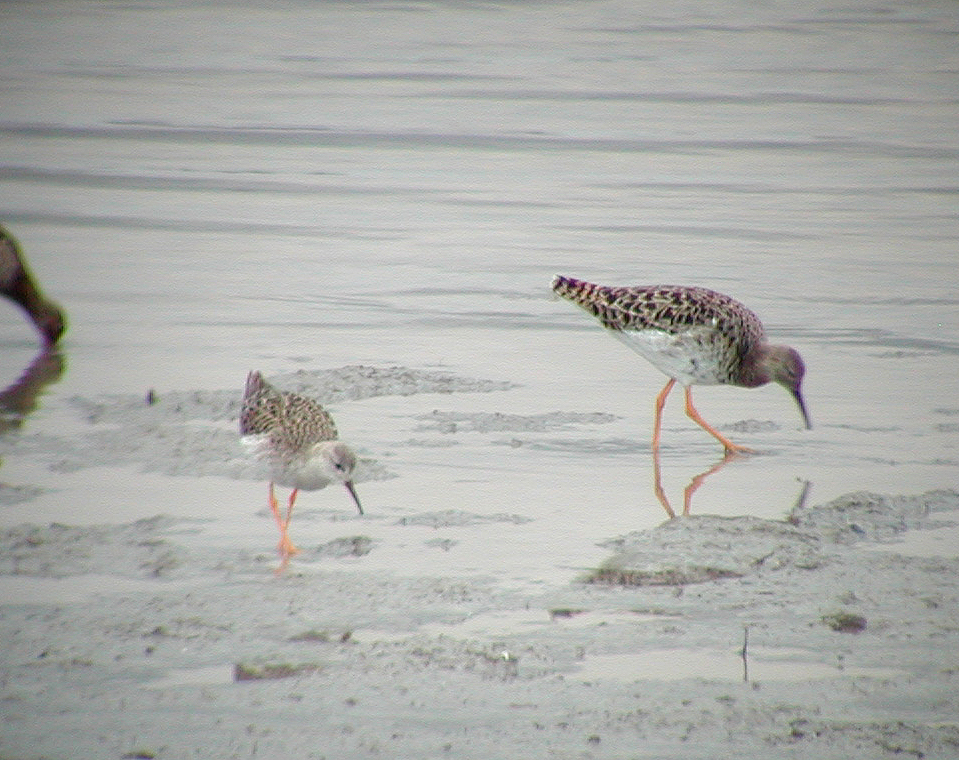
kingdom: Animalia
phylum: Chordata
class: Aves
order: Charadriiformes
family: Scolopacidae
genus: Calidris
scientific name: Calidris pugnax
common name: Ruff
